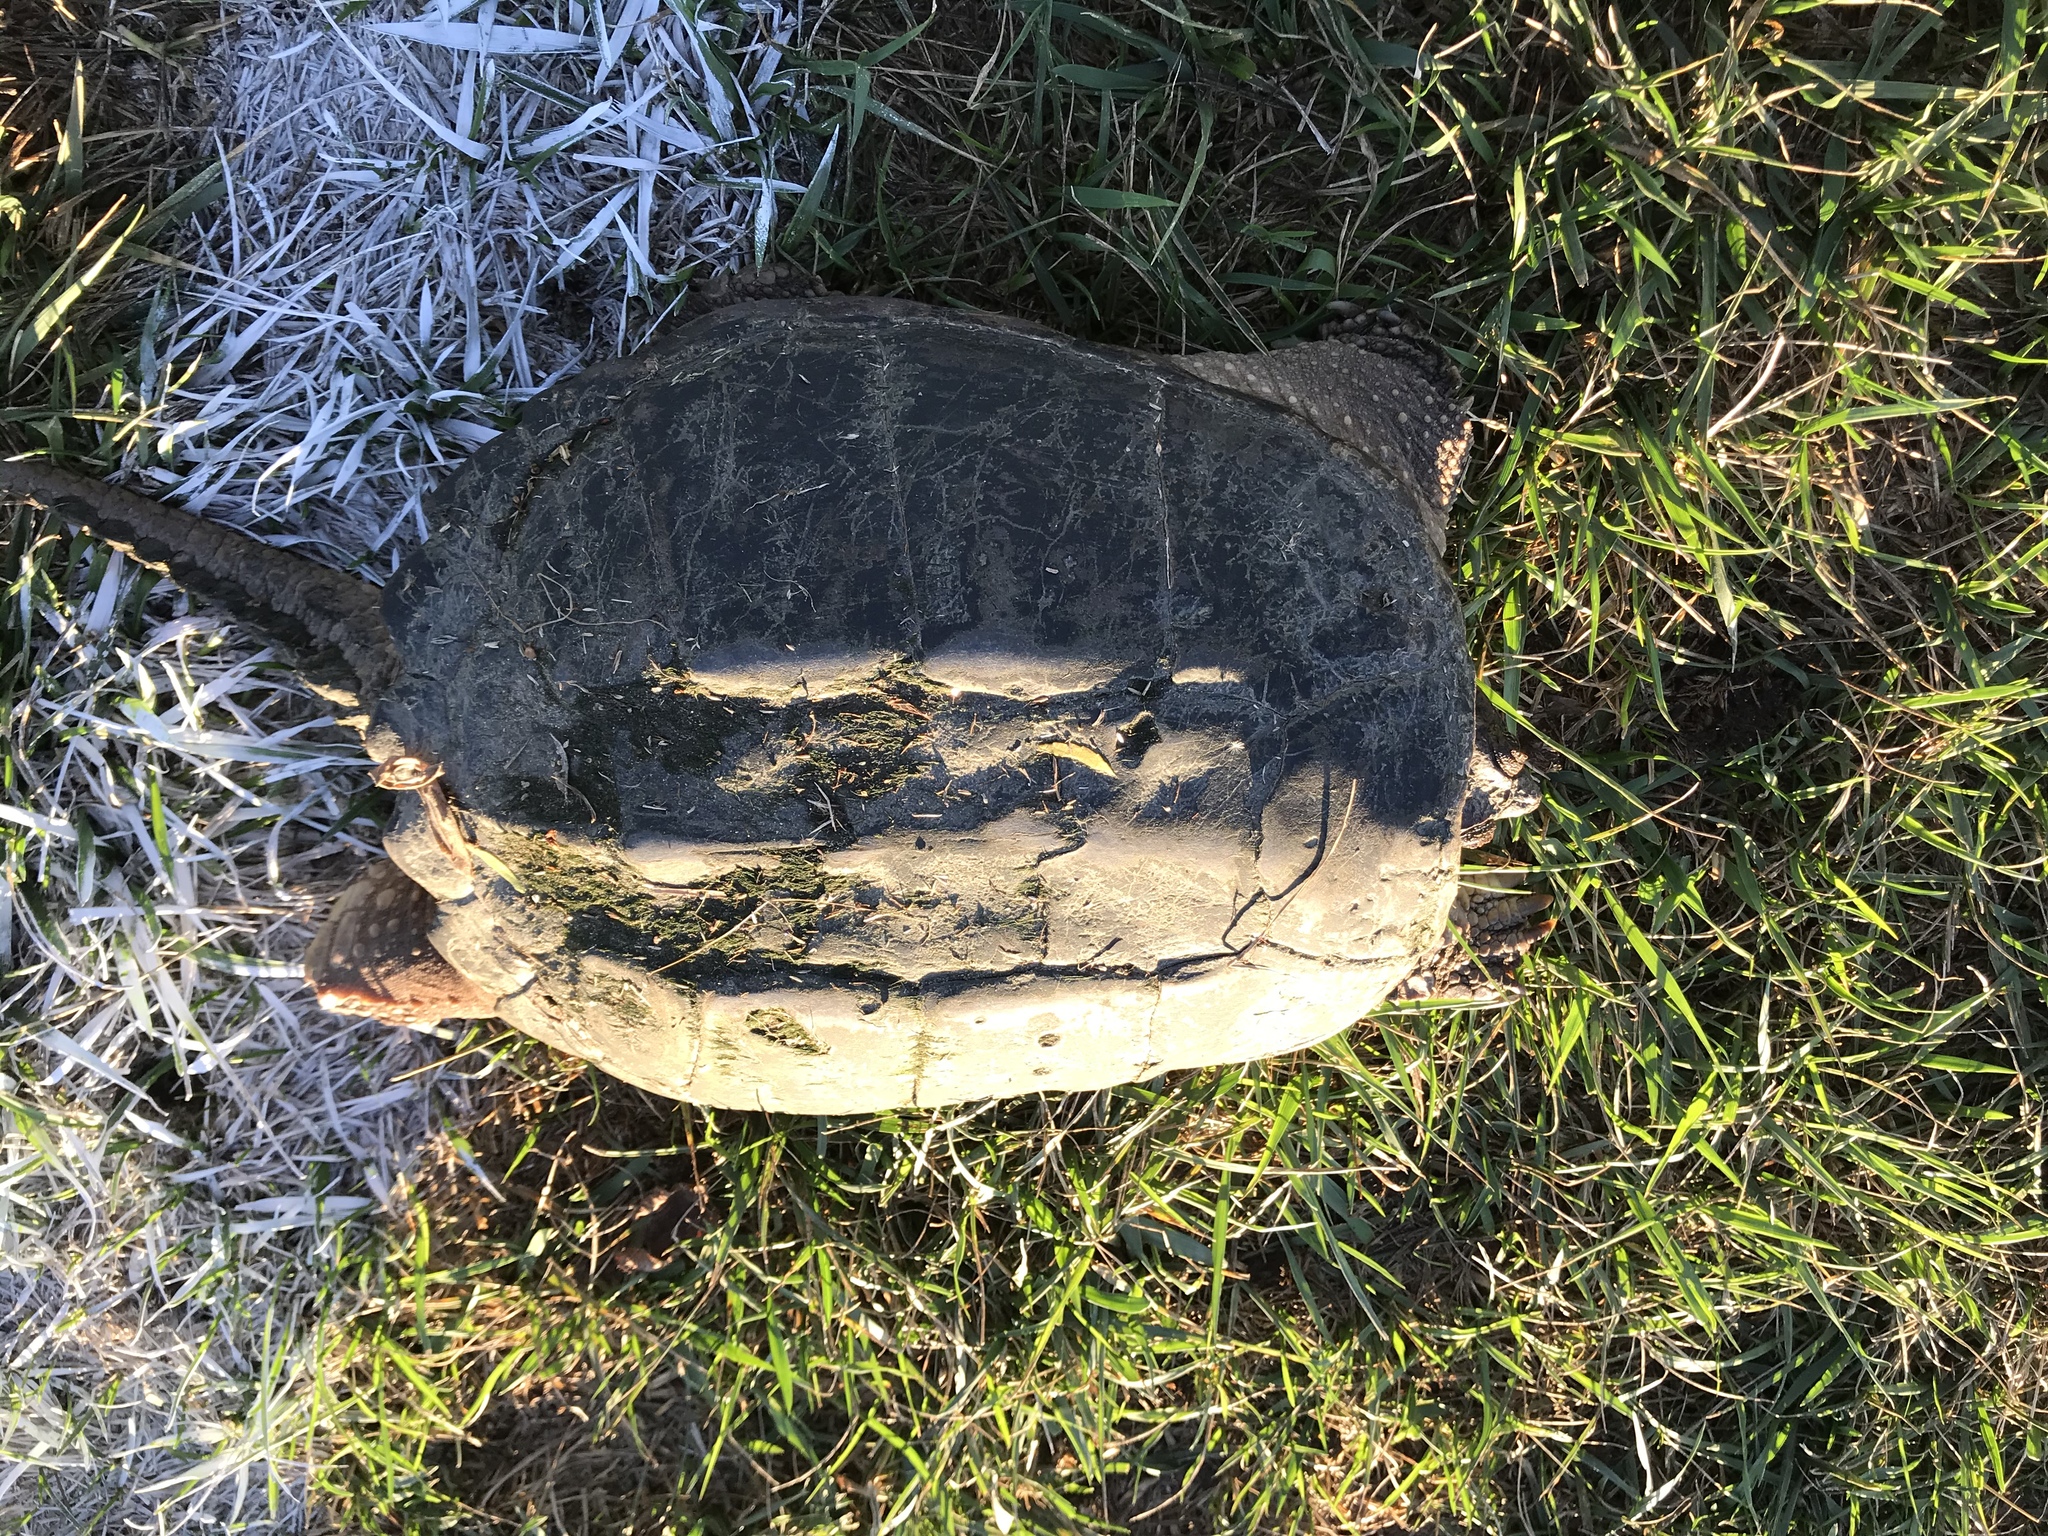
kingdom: Animalia
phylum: Chordata
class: Testudines
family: Chelydridae
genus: Chelydra
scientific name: Chelydra serpentina
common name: Common snapping turtle
